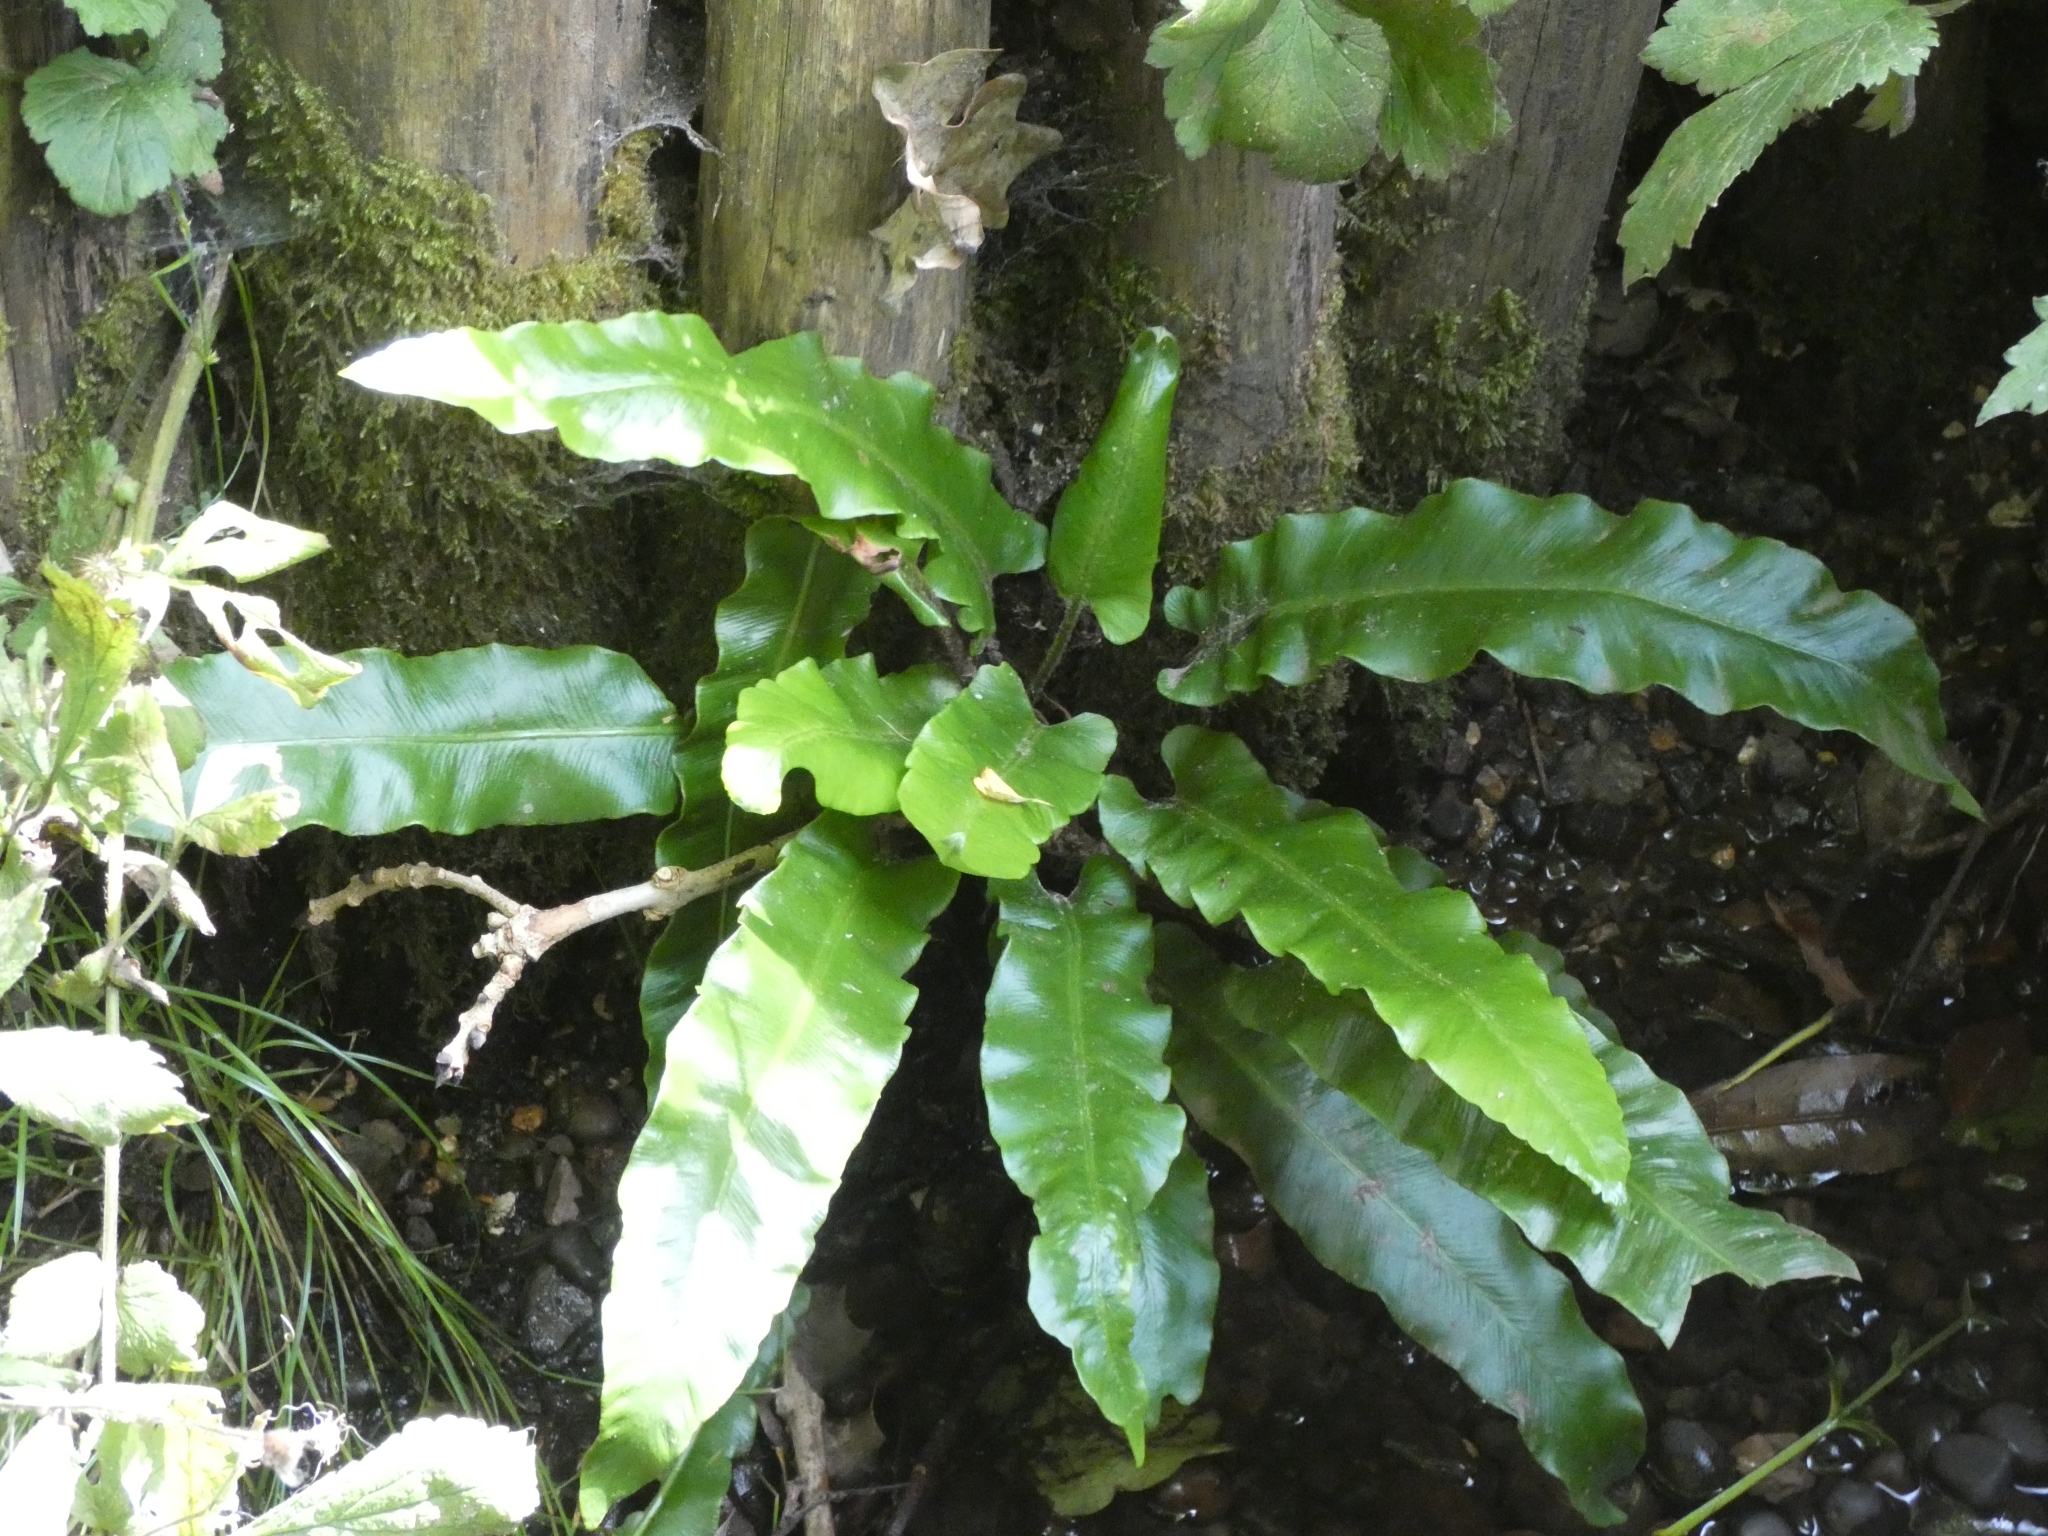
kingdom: Plantae
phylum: Tracheophyta
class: Polypodiopsida
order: Polypodiales
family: Aspleniaceae
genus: Asplenium
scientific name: Asplenium scolopendrium
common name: Hart's-tongue fern
